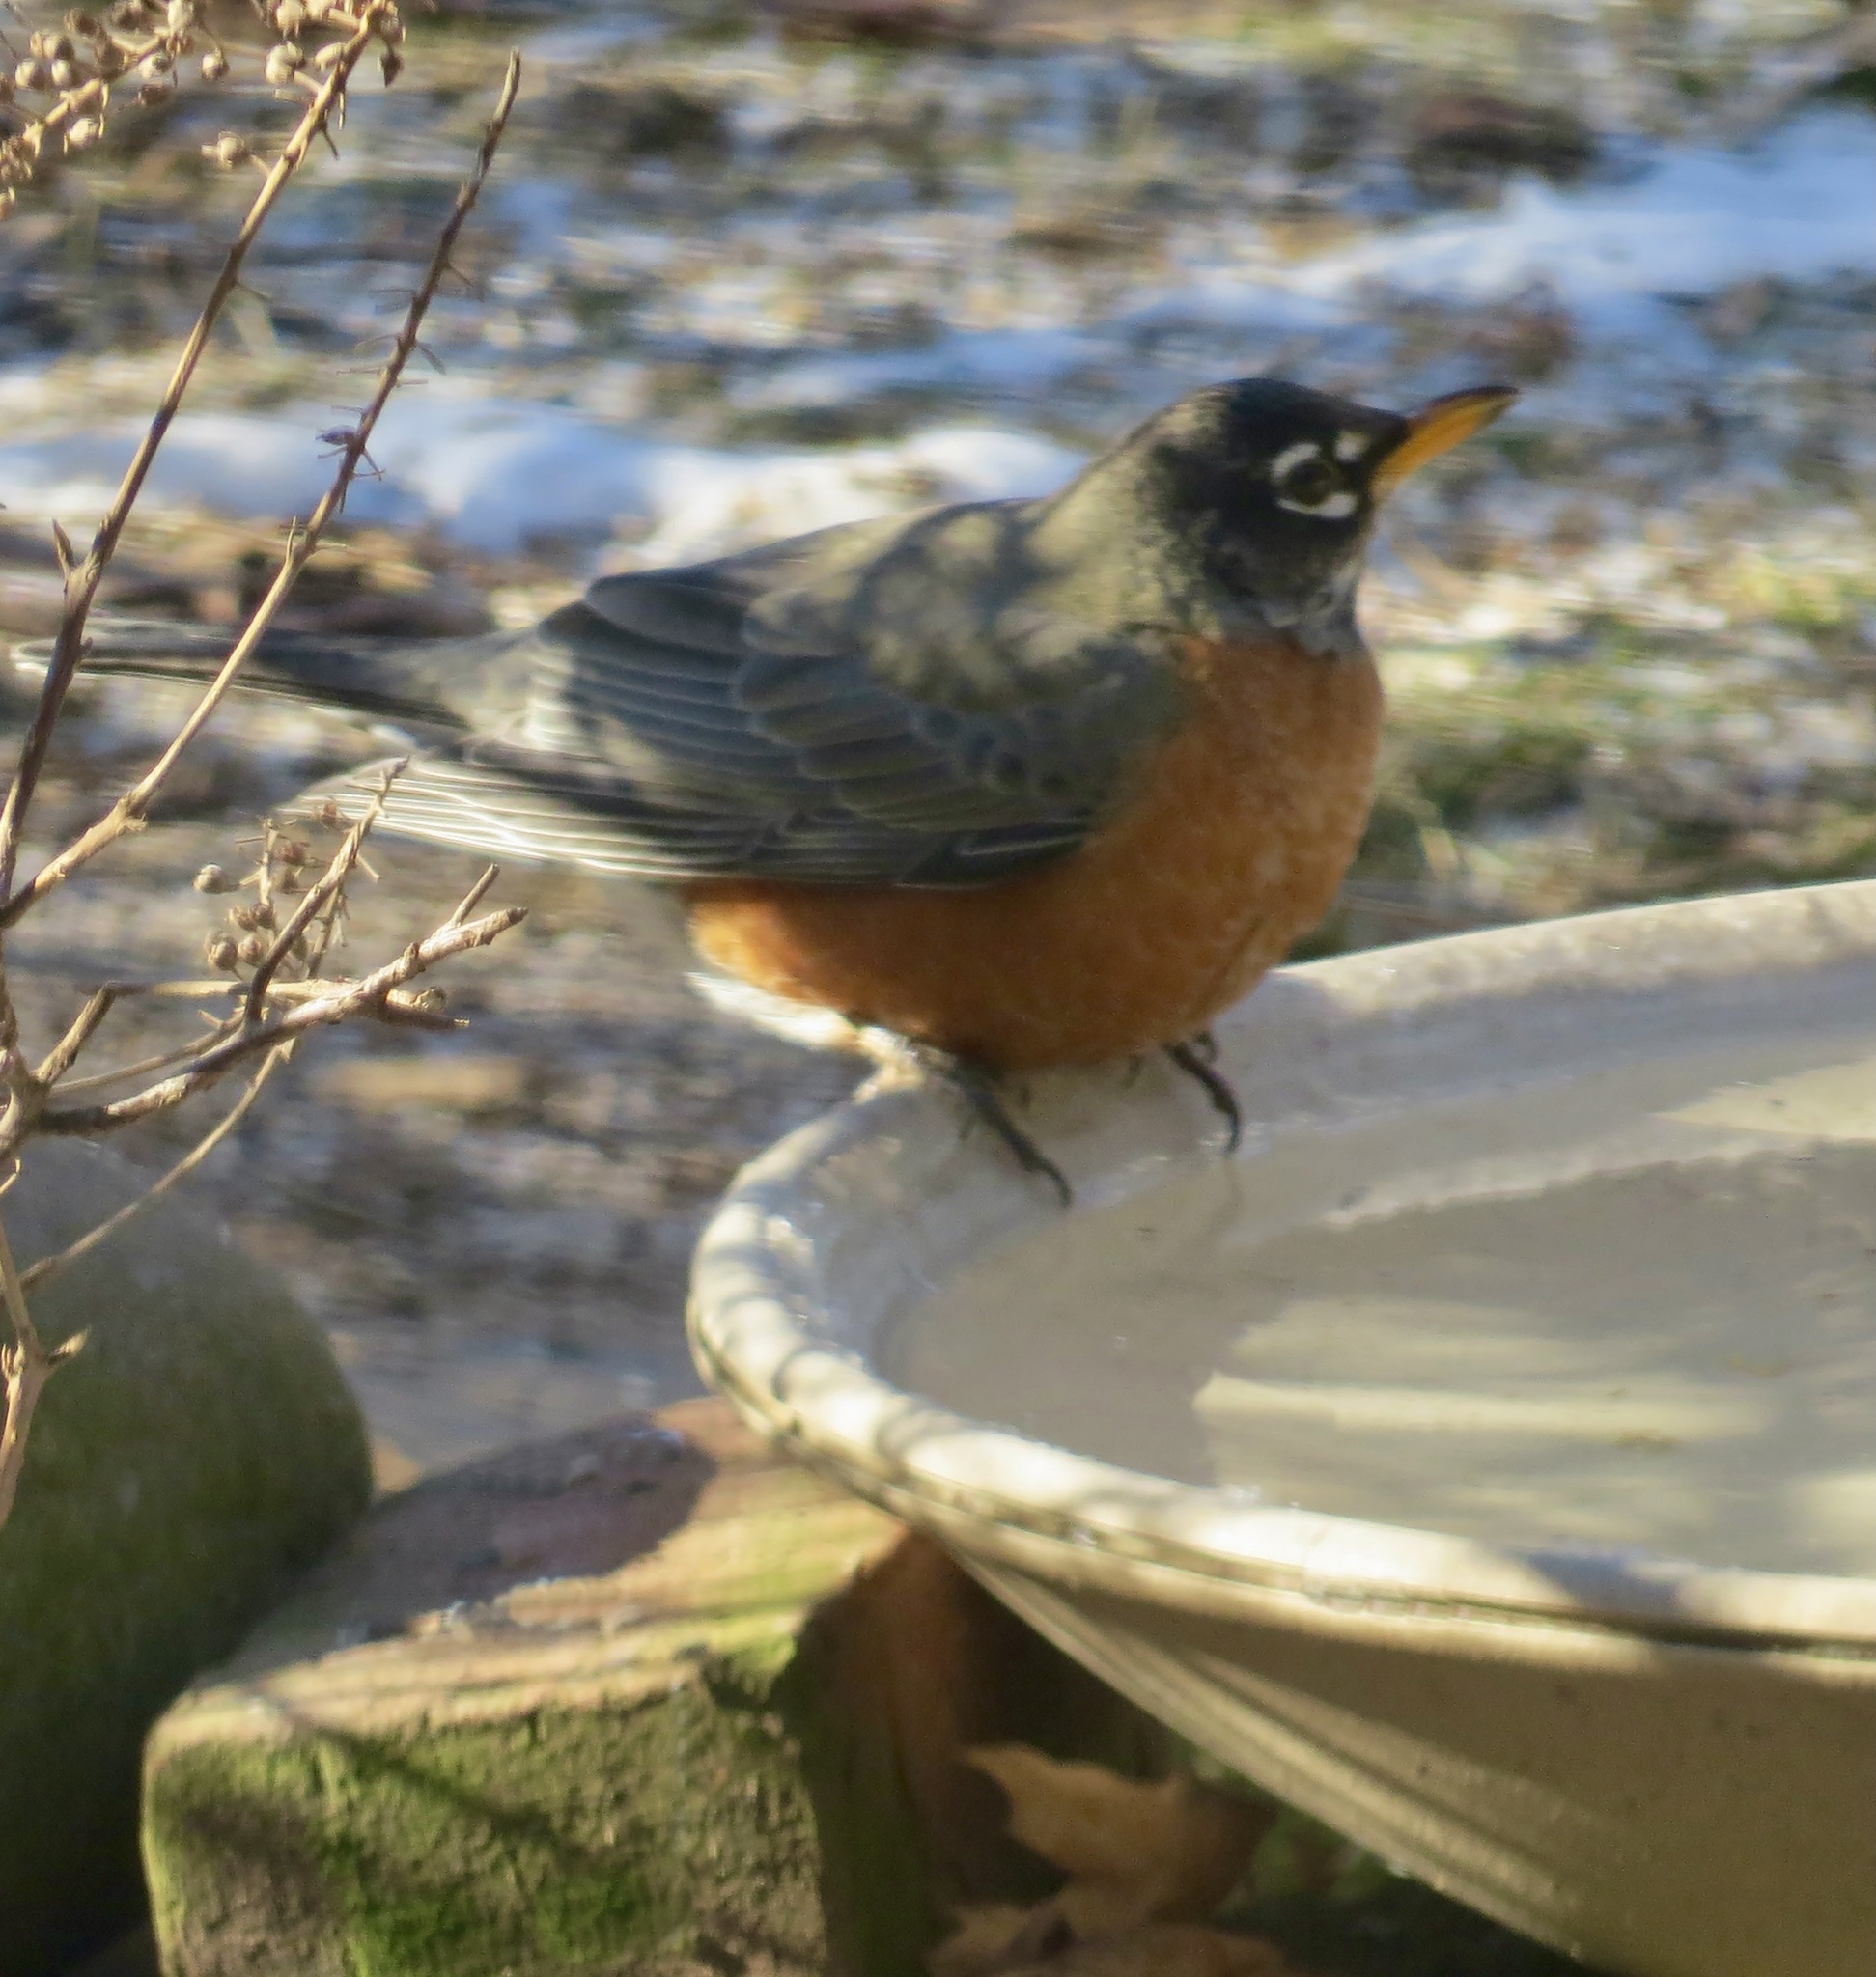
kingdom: Animalia
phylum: Chordata
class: Aves
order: Passeriformes
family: Turdidae
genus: Turdus
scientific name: Turdus migratorius
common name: American robin
